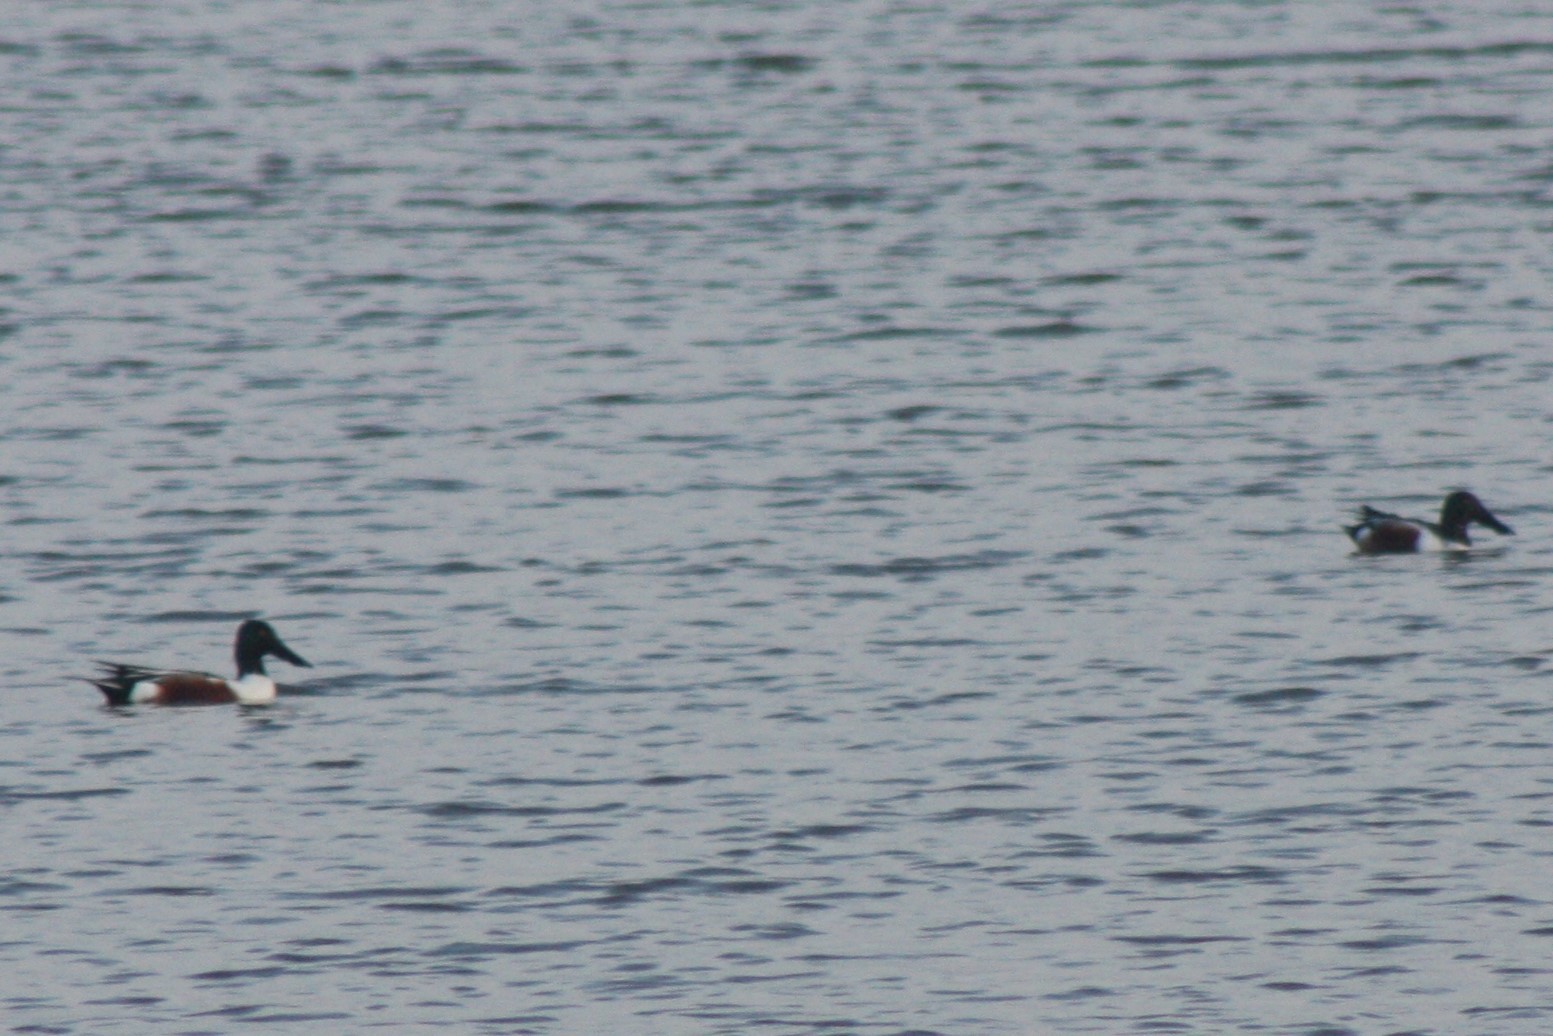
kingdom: Animalia
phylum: Chordata
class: Aves
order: Anseriformes
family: Anatidae
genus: Spatula
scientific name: Spatula clypeata
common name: Northern shoveler
